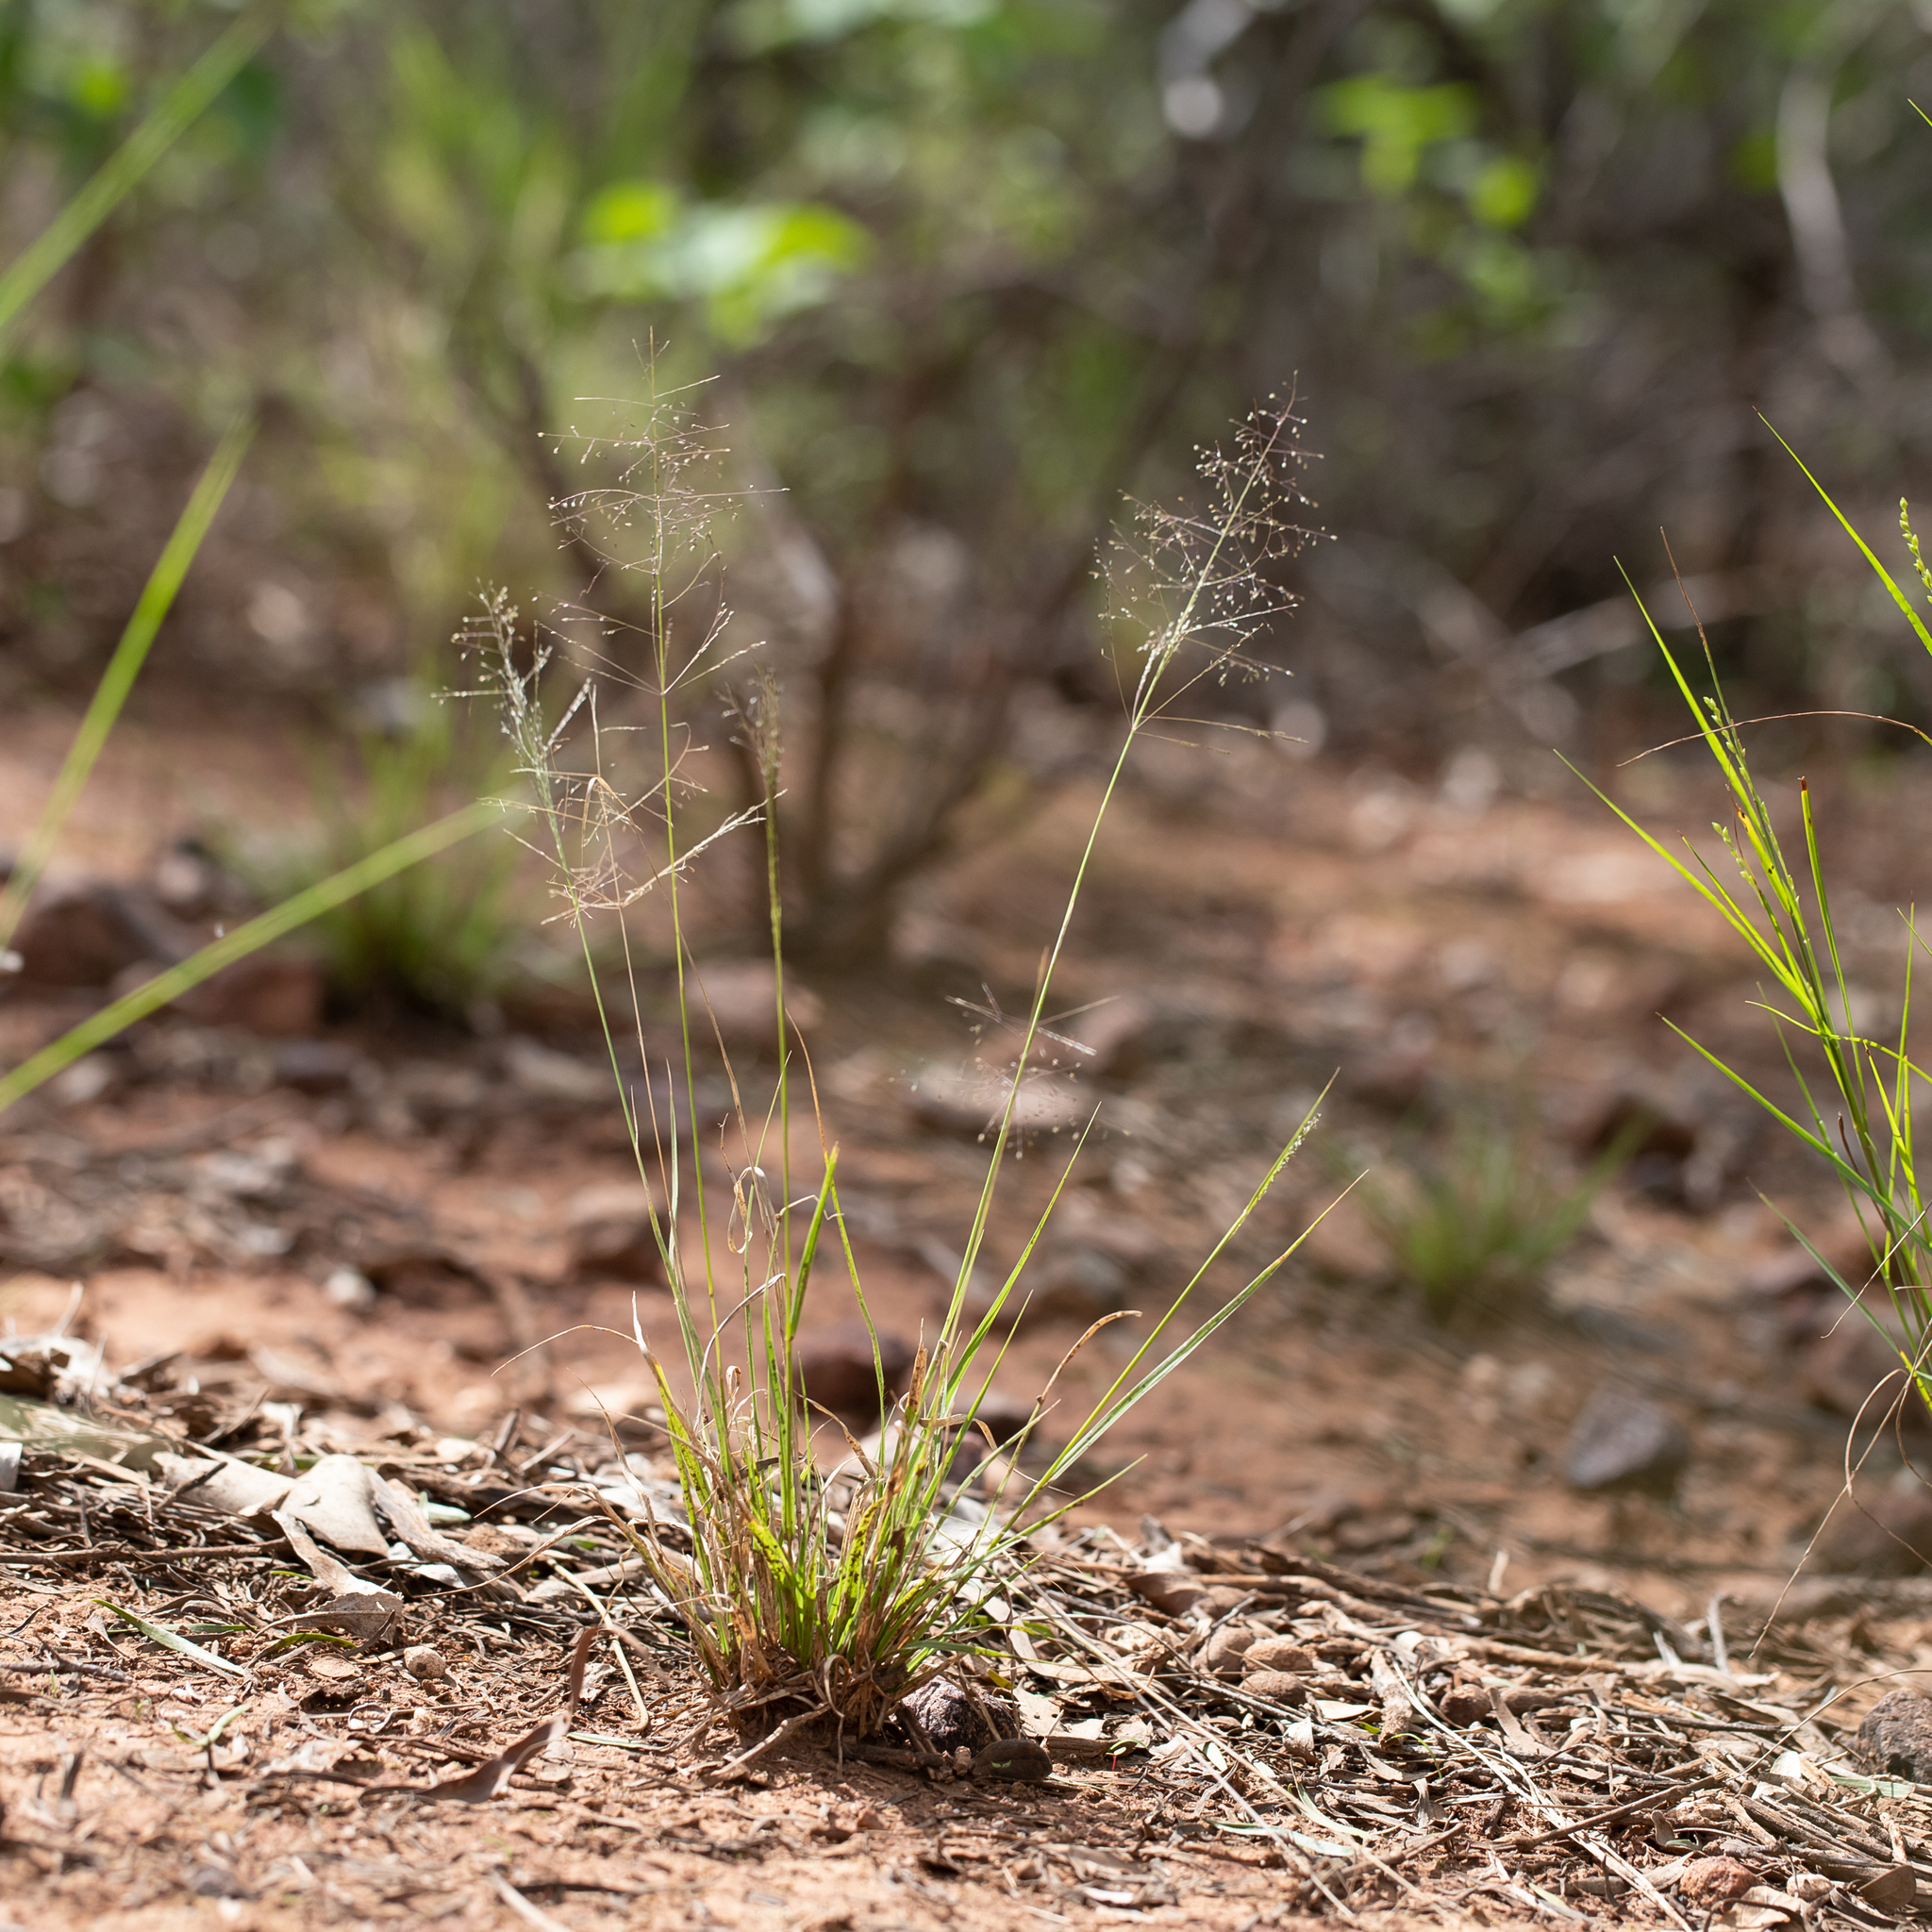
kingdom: Plantae
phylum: Tracheophyta
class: Liliopsida
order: Poales
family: Poaceae
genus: Sporobolus
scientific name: Sporobolus caroli
